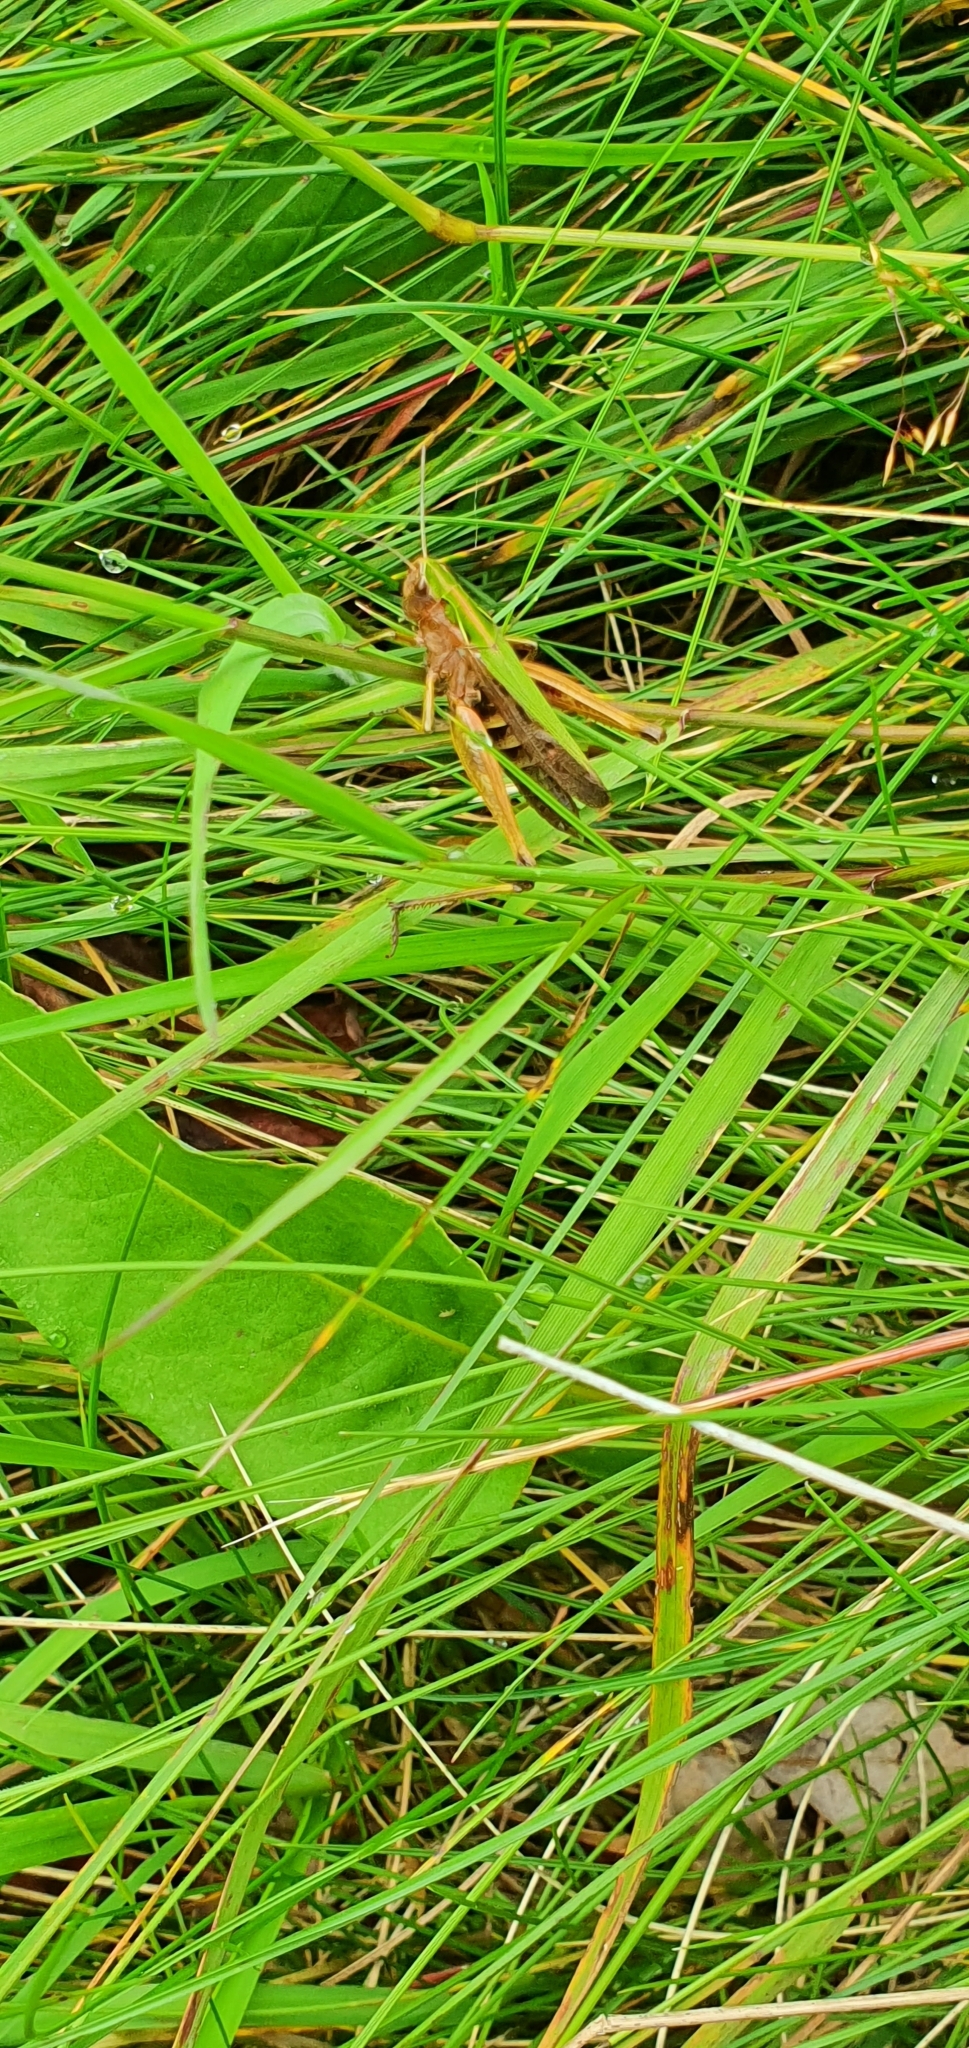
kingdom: Animalia
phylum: Arthropoda
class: Insecta
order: Orthoptera
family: Acrididae
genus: Omocestus
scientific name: Omocestus viridulus
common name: Common green grasshopper
